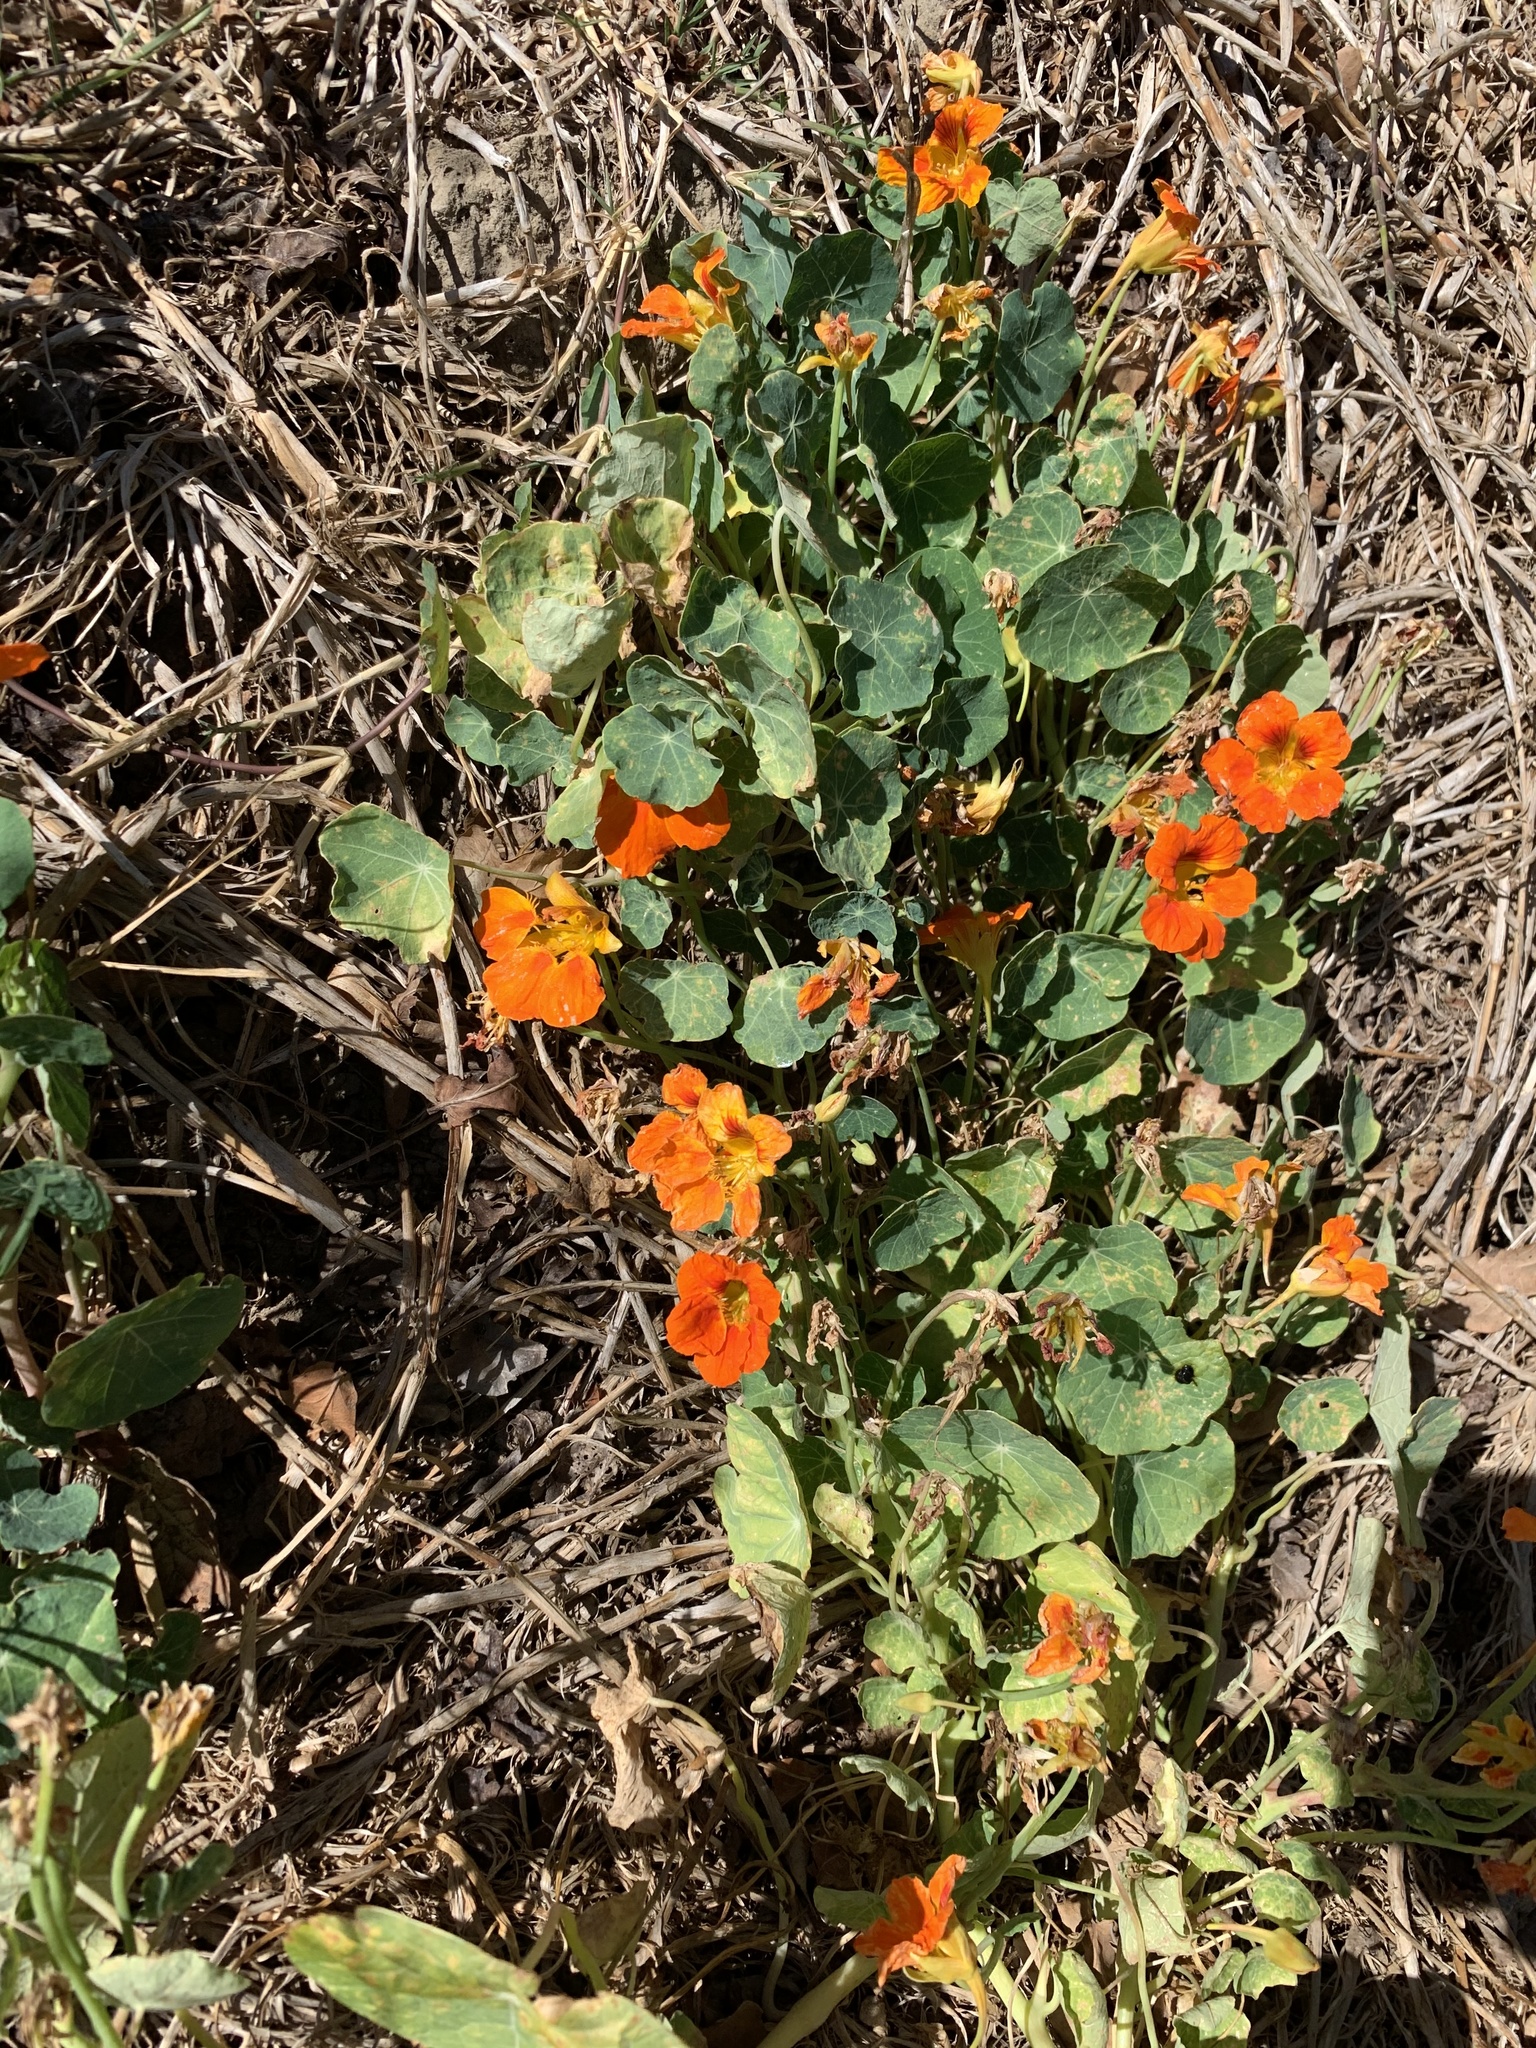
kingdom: Plantae
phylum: Tracheophyta
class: Magnoliopsida
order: Brassicales
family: Tropaeolaceae
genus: Tropaeolum
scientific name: Tropaeolum majus
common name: Nasturtium
